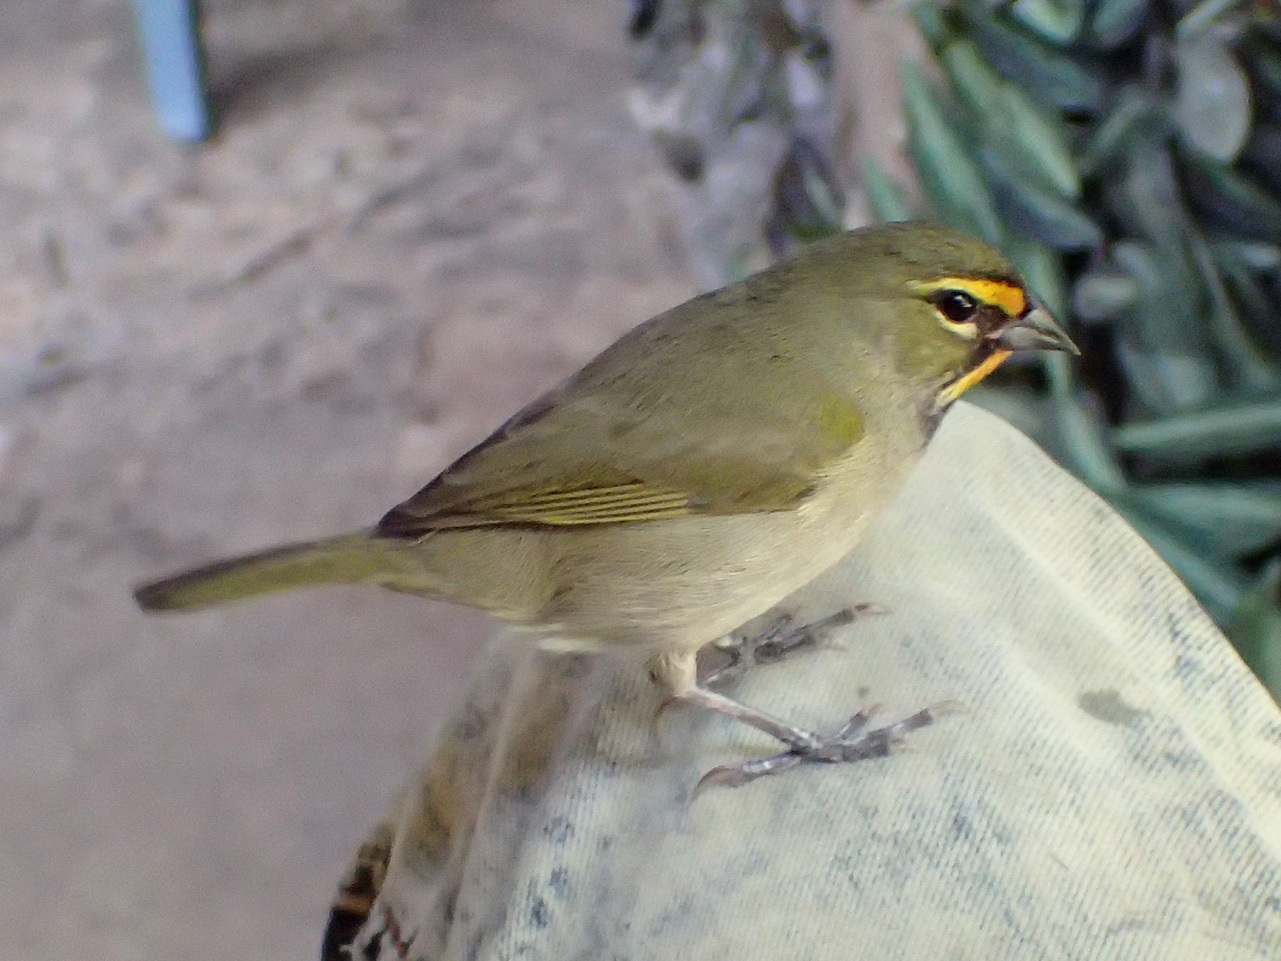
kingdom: Animalia
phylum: Chordata
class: Aves
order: Passeriformes
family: Thraupidae
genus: Tiaris
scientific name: Tiaris olivaceus
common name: Yellow-faced grassquit
